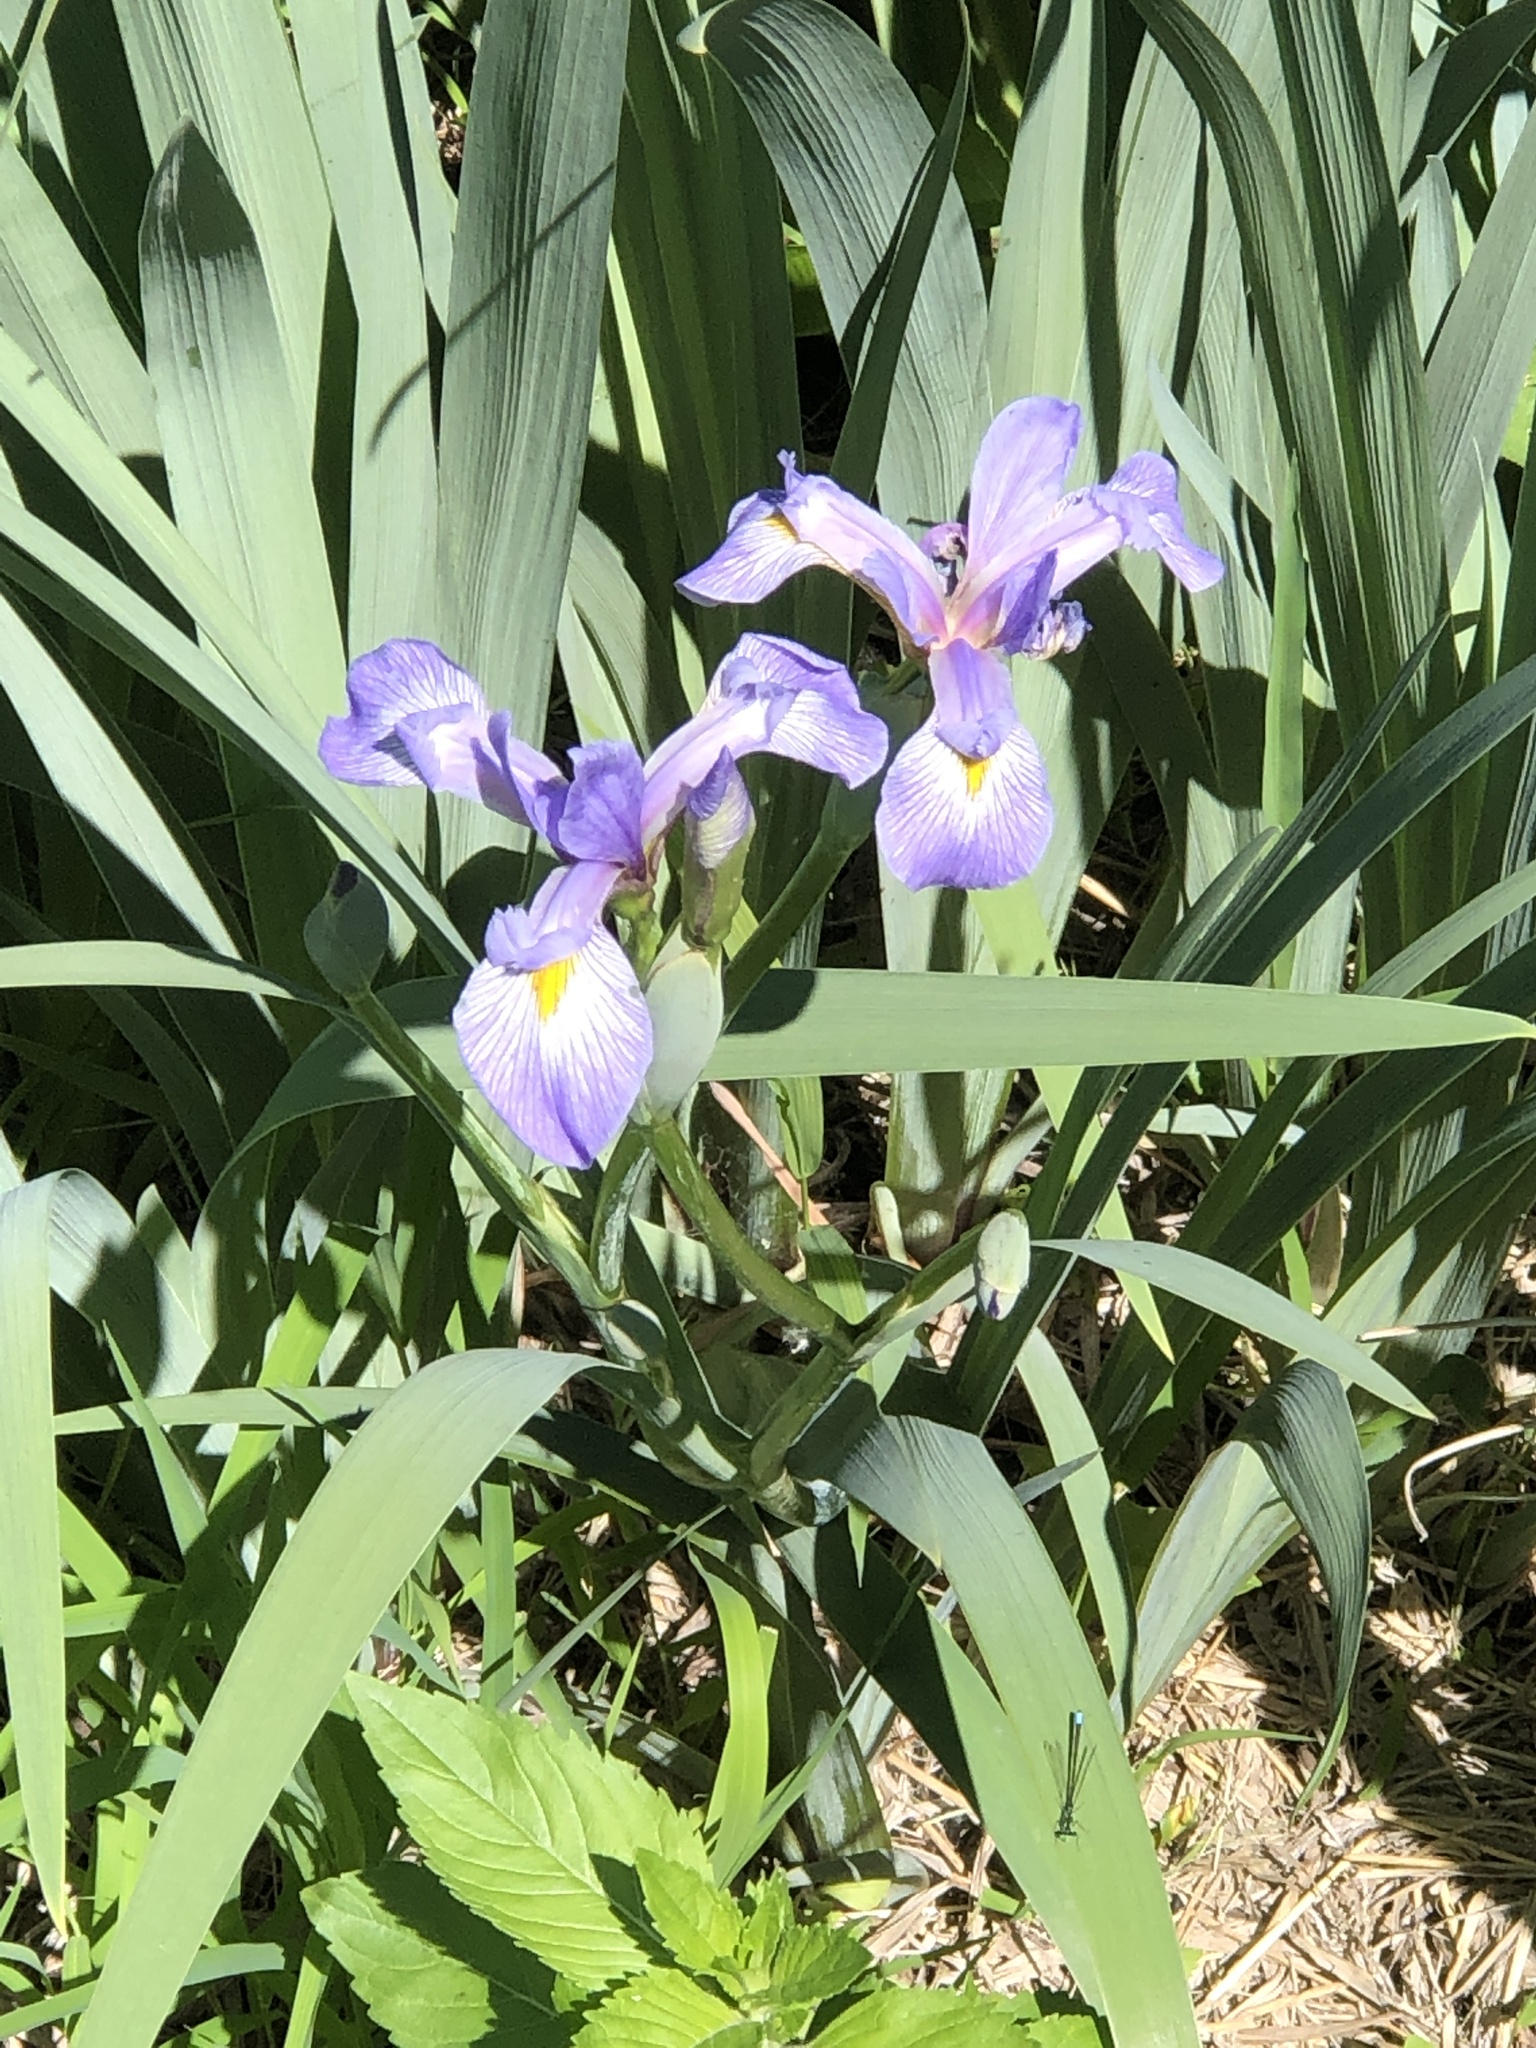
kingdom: Plantae
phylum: Tracheophyta
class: Liliopsida
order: Asparagales
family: Iridaceae
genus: Iris
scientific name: Iris virginica
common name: Southern blue flag
